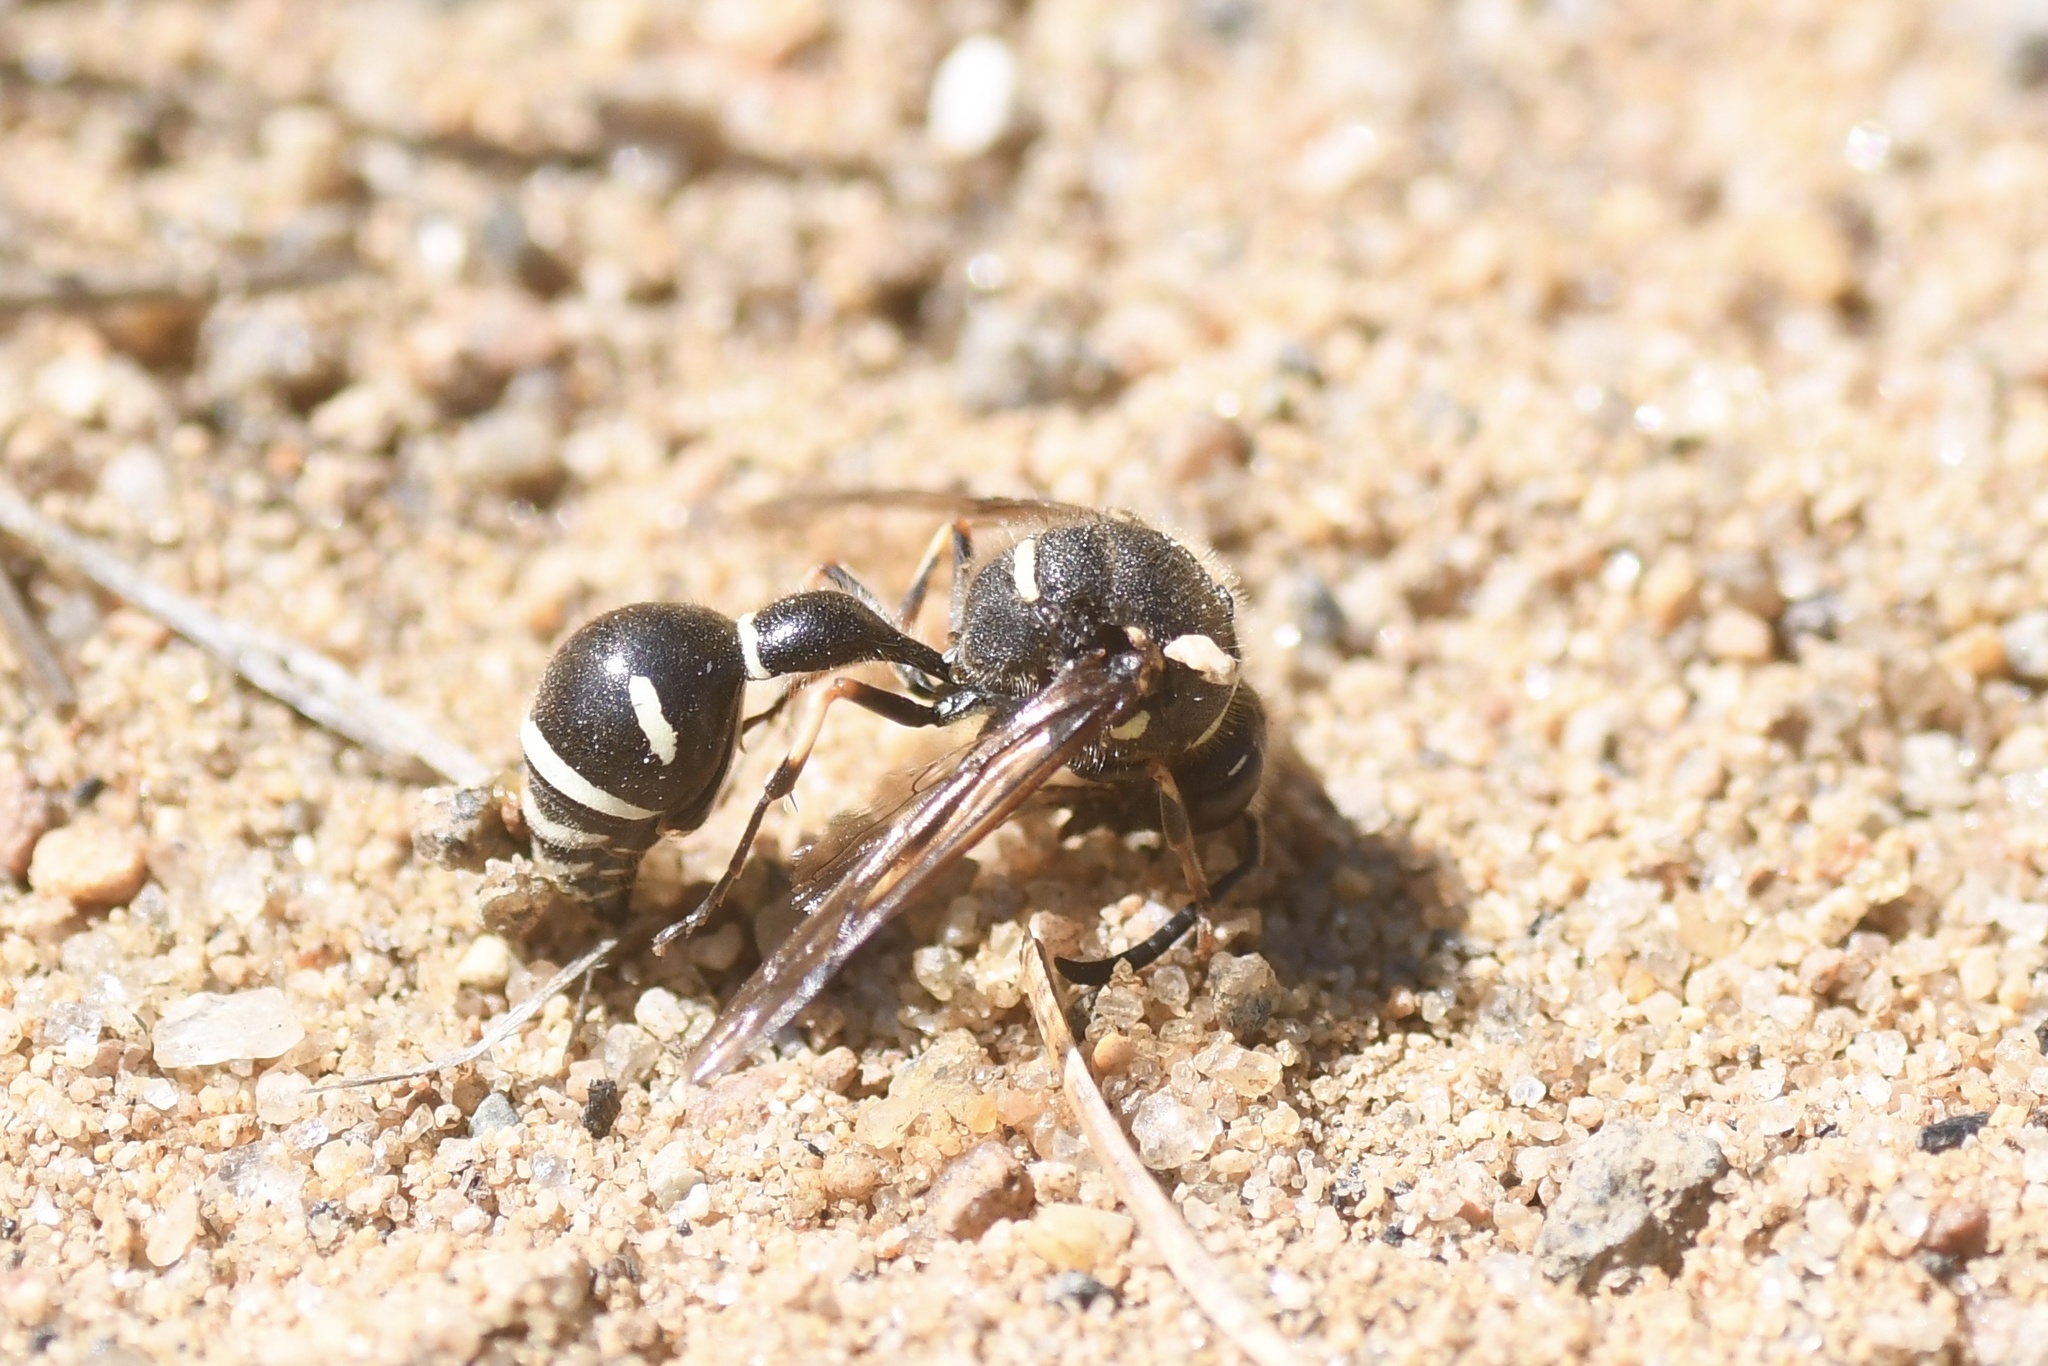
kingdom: Animalia
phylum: Arthropoda
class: Insecta
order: Hymenoptera
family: Vespidae
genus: Eumenes
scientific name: Eumenes crucifera
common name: Cross potter wasp
